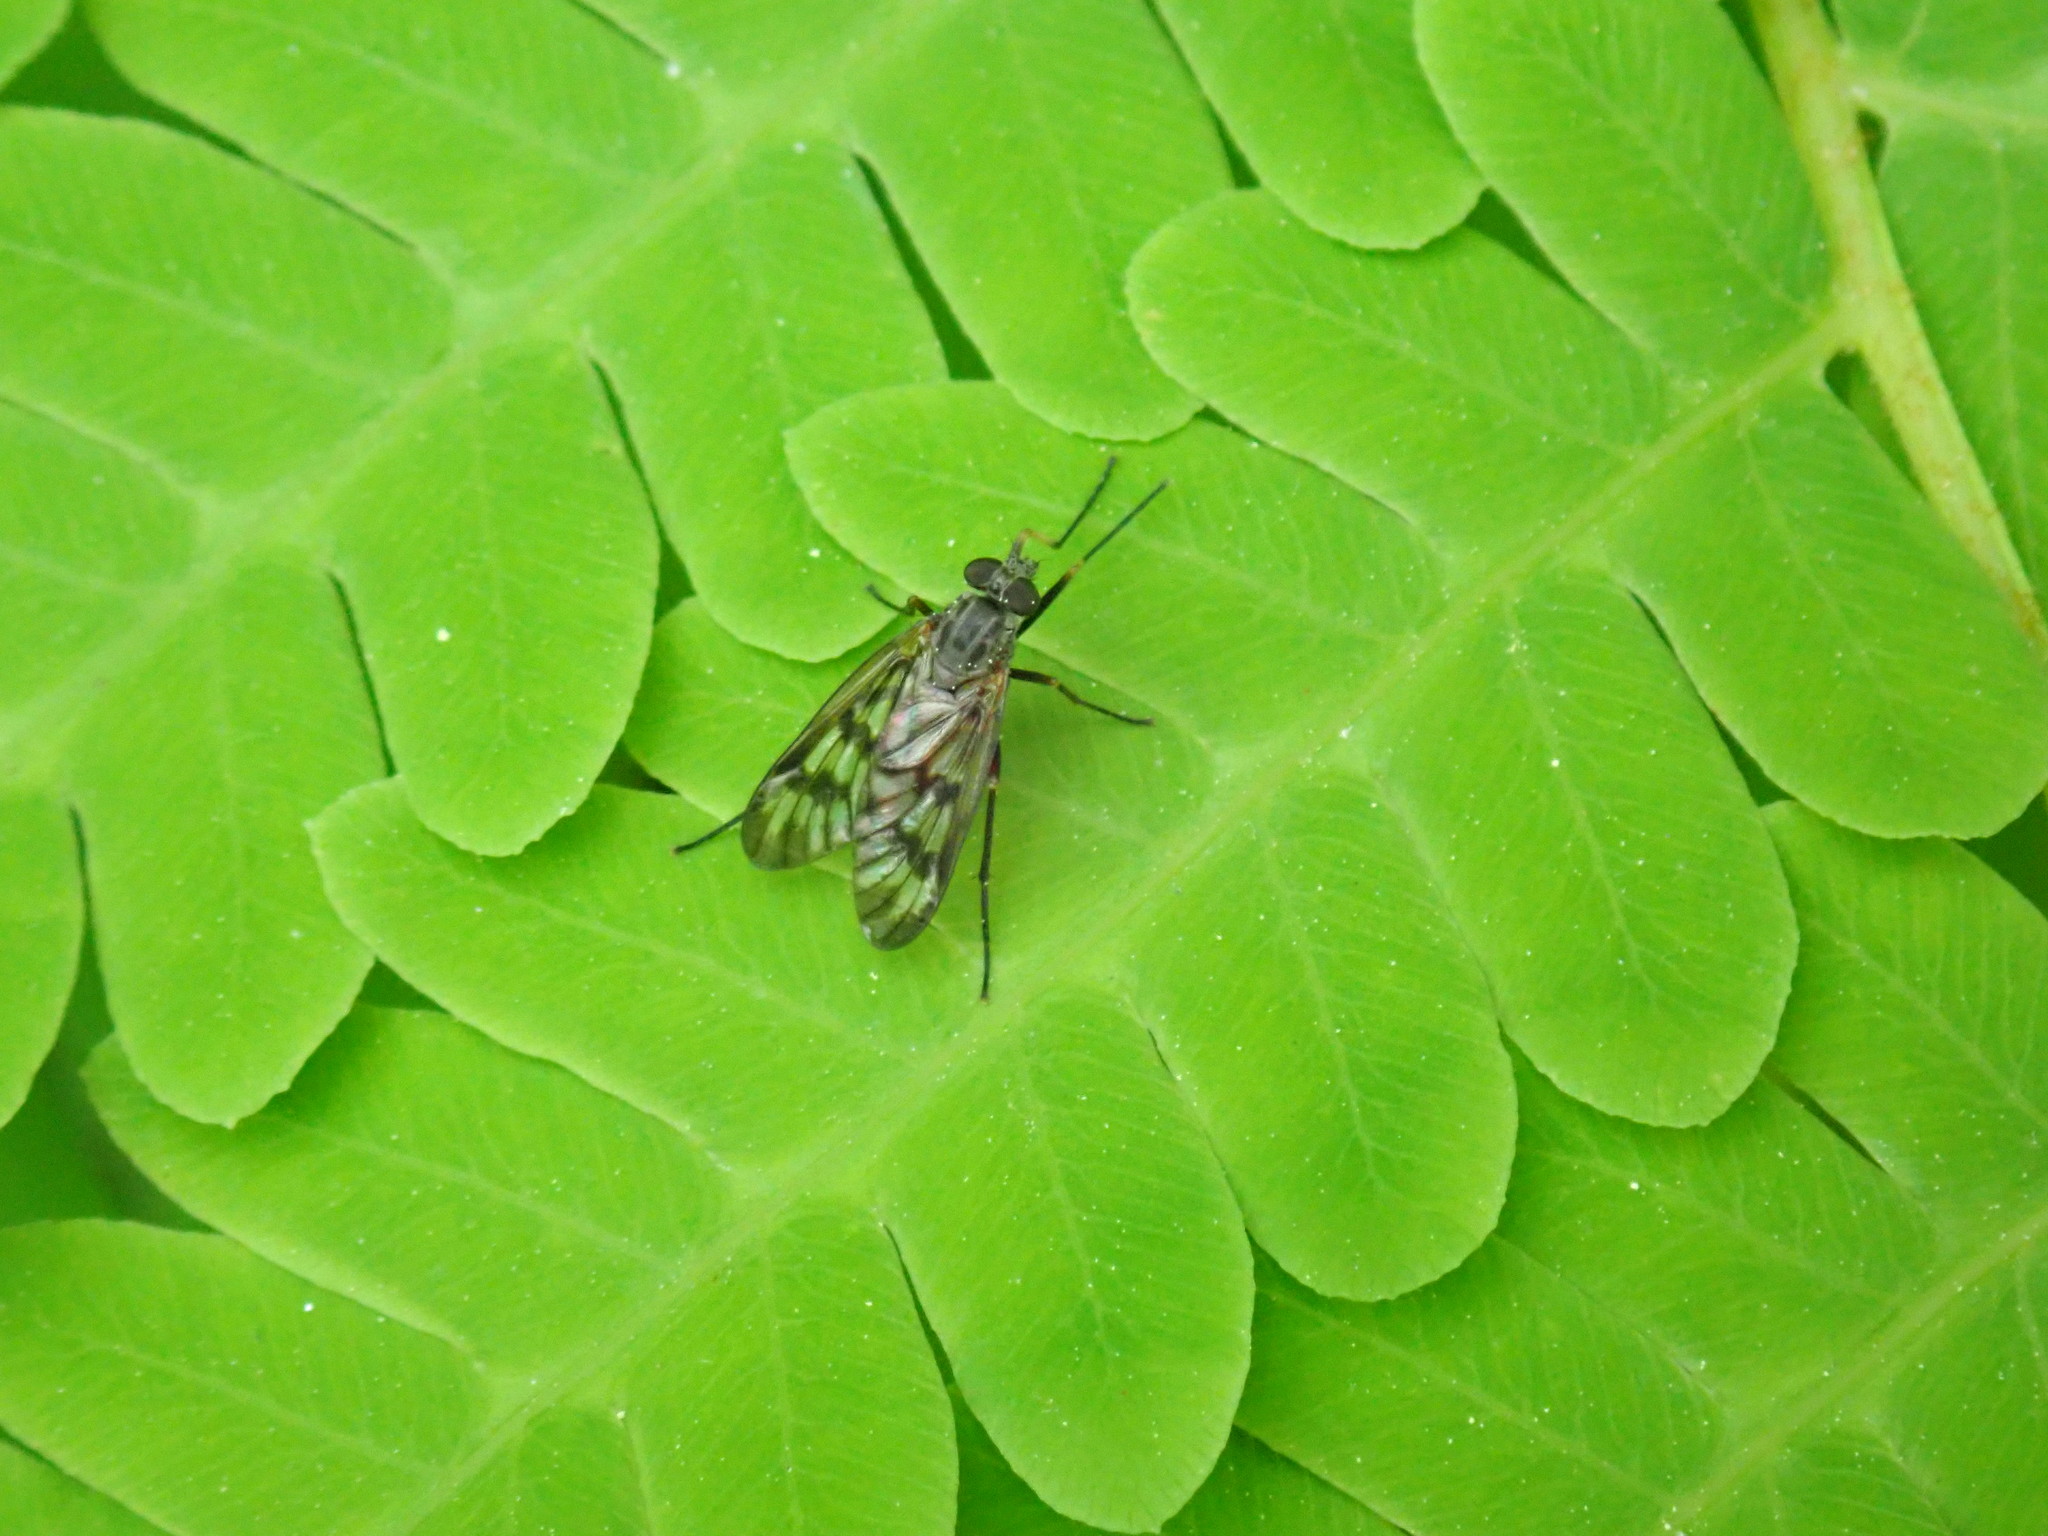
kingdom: Animalia
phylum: Arthropoda
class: Insecta
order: Diptera
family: Rhagionidae
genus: Rhagio
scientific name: Rhagio mystaceus
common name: Common snipe fly
